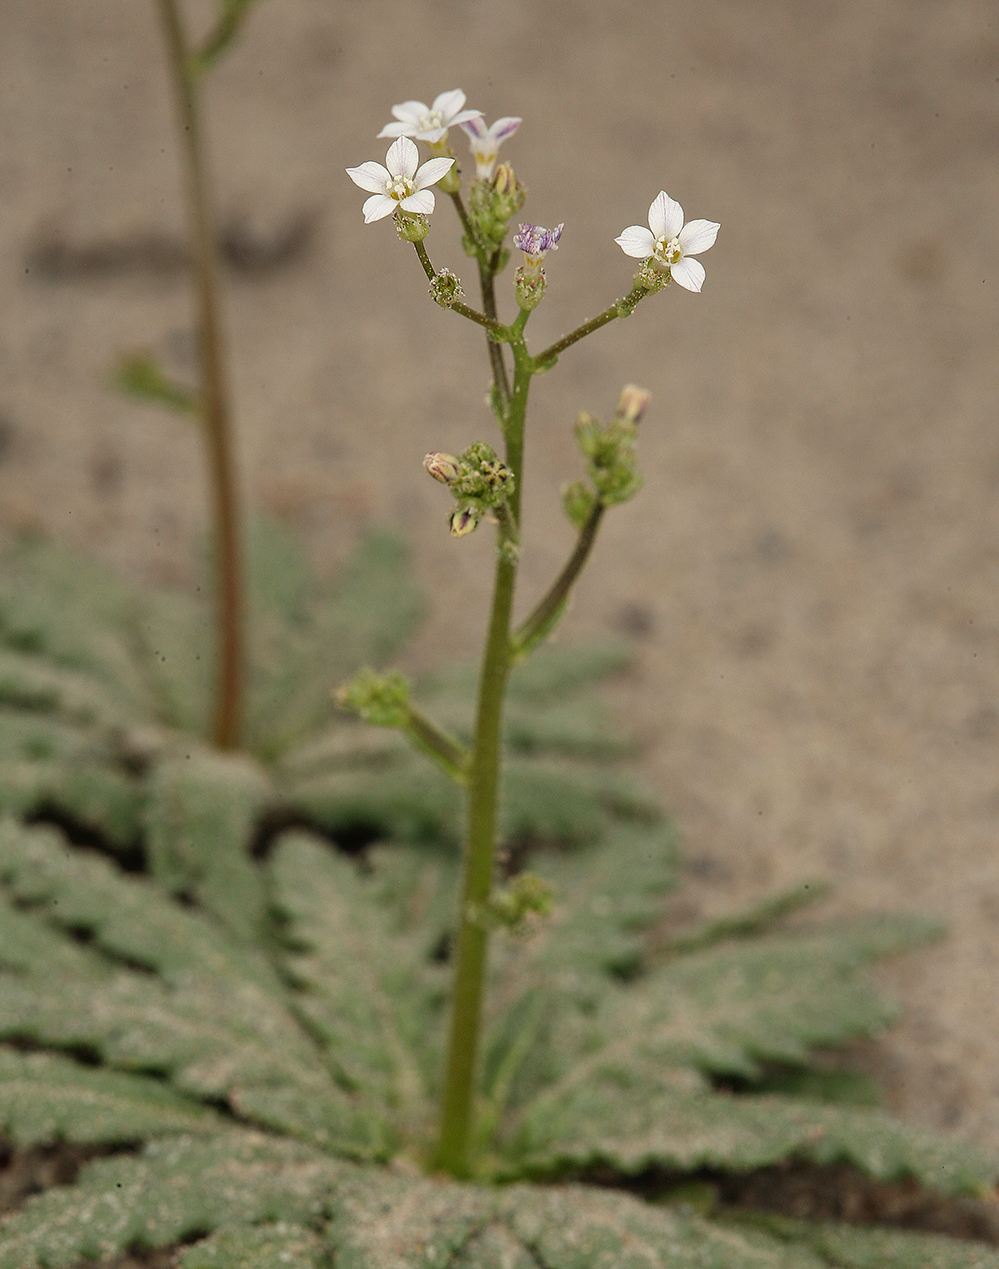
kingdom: Plantae
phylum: Tracheophyta
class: Magnoliopsida
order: Ericales
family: Polemoniaceae
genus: Aliciella
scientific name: Aliciella lottiae
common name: Lott's gilia
